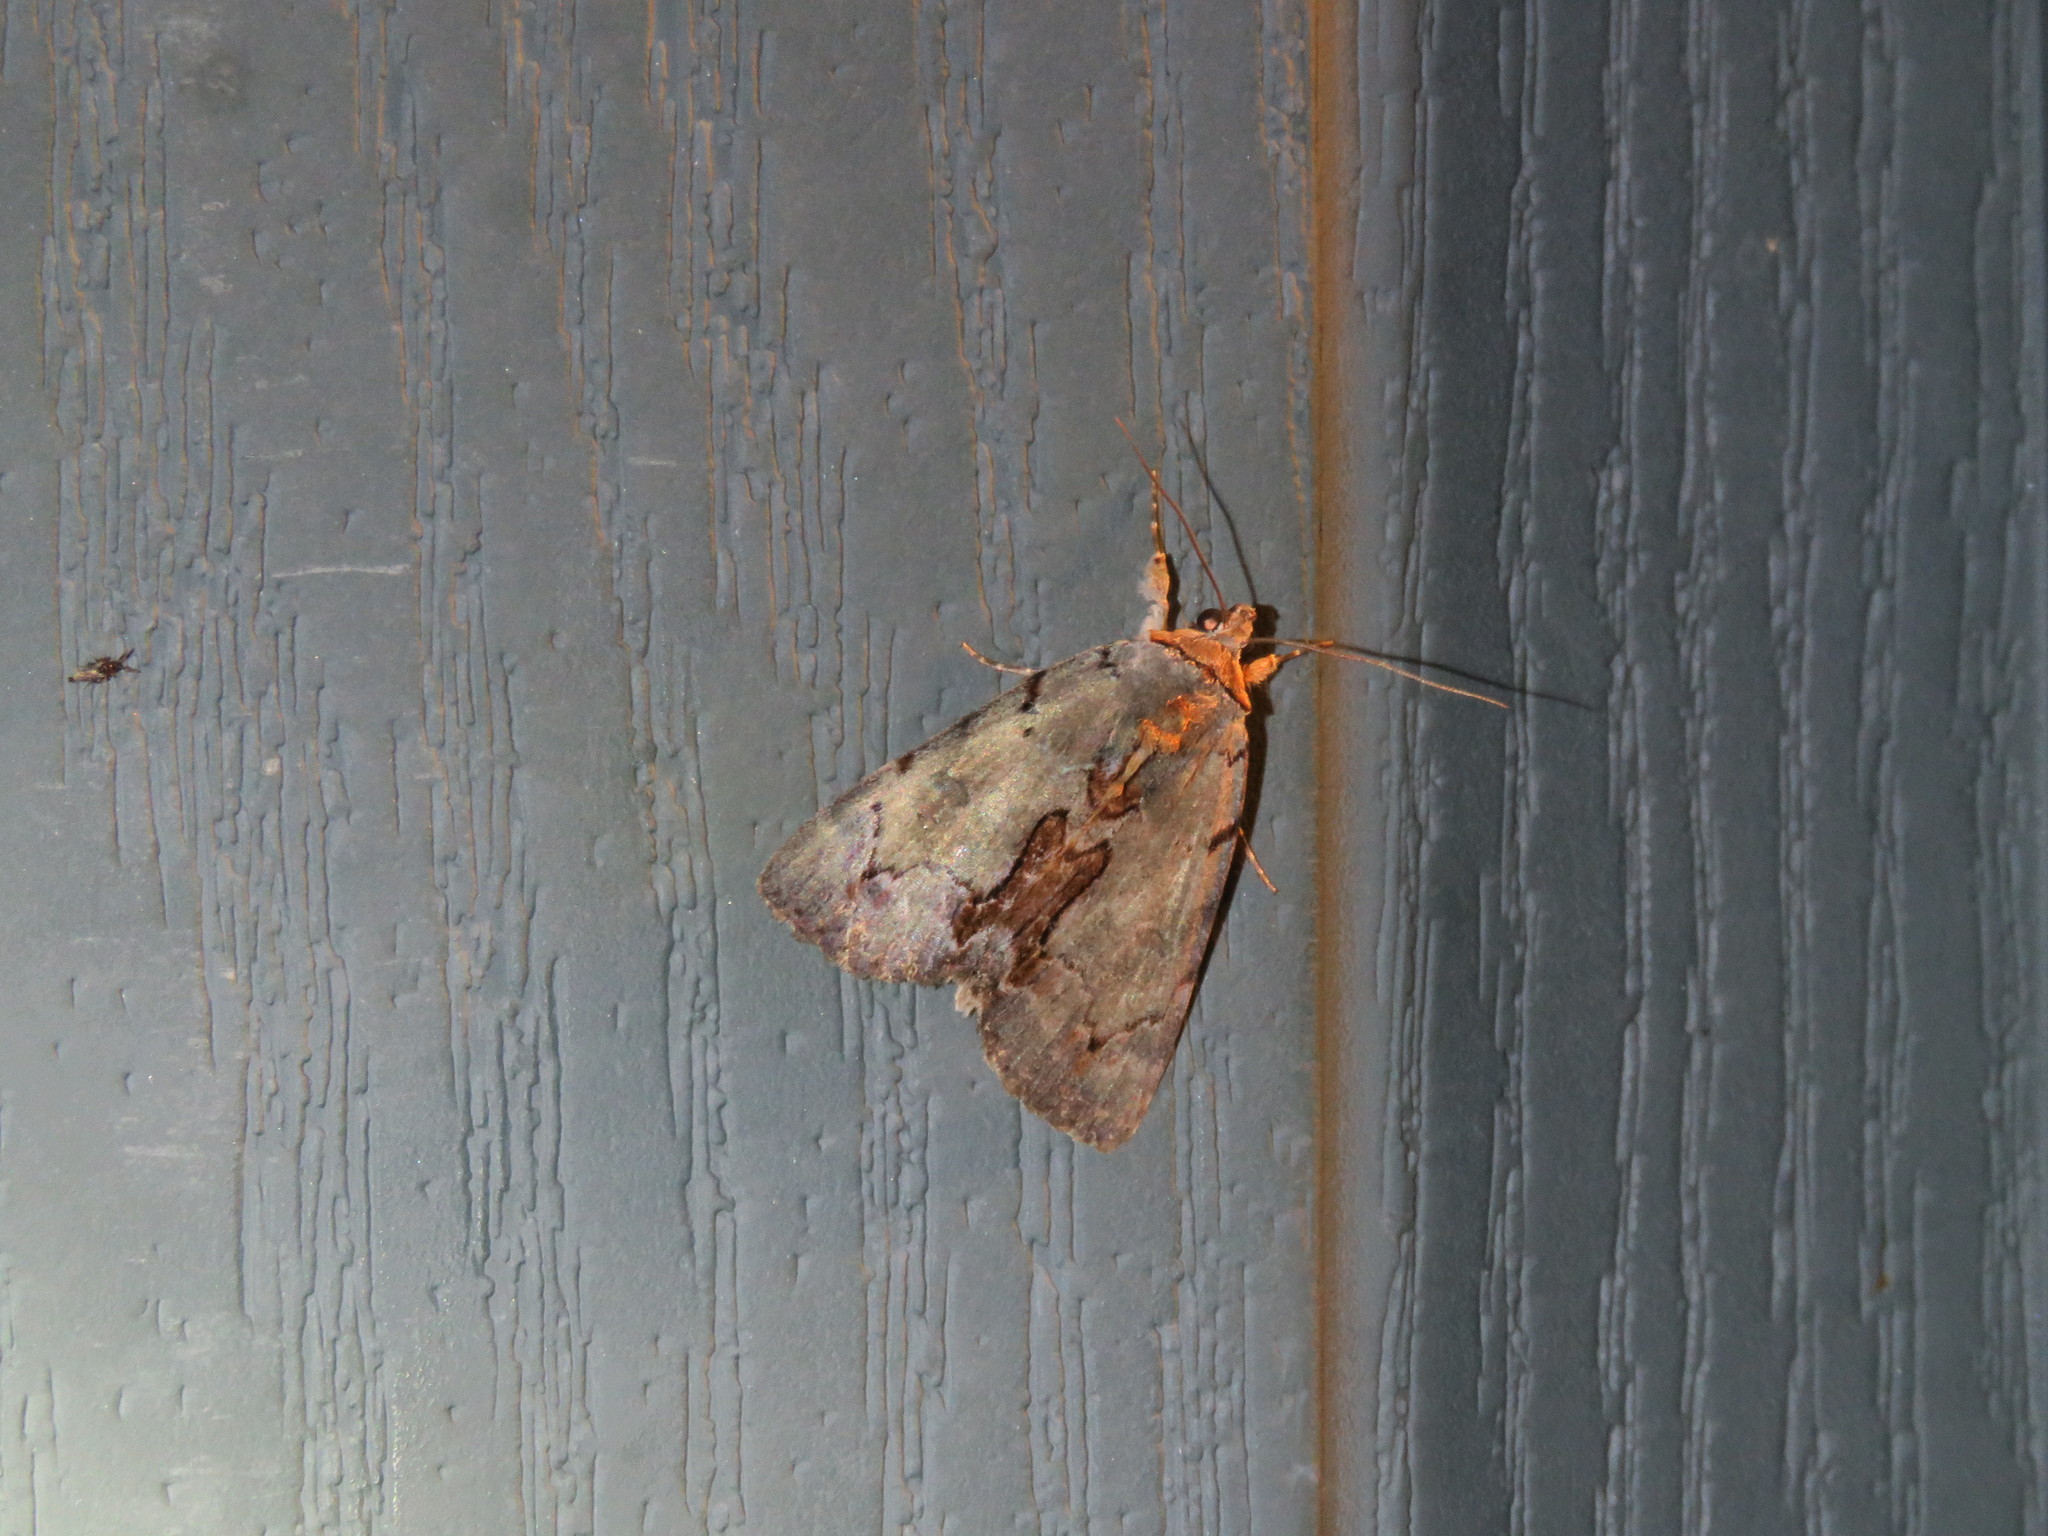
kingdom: Animalia
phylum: Arthropoda
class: Insecta
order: Lepidoptera
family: Erebidae
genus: Catocala
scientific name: Catocala grynea
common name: Woody underwing
